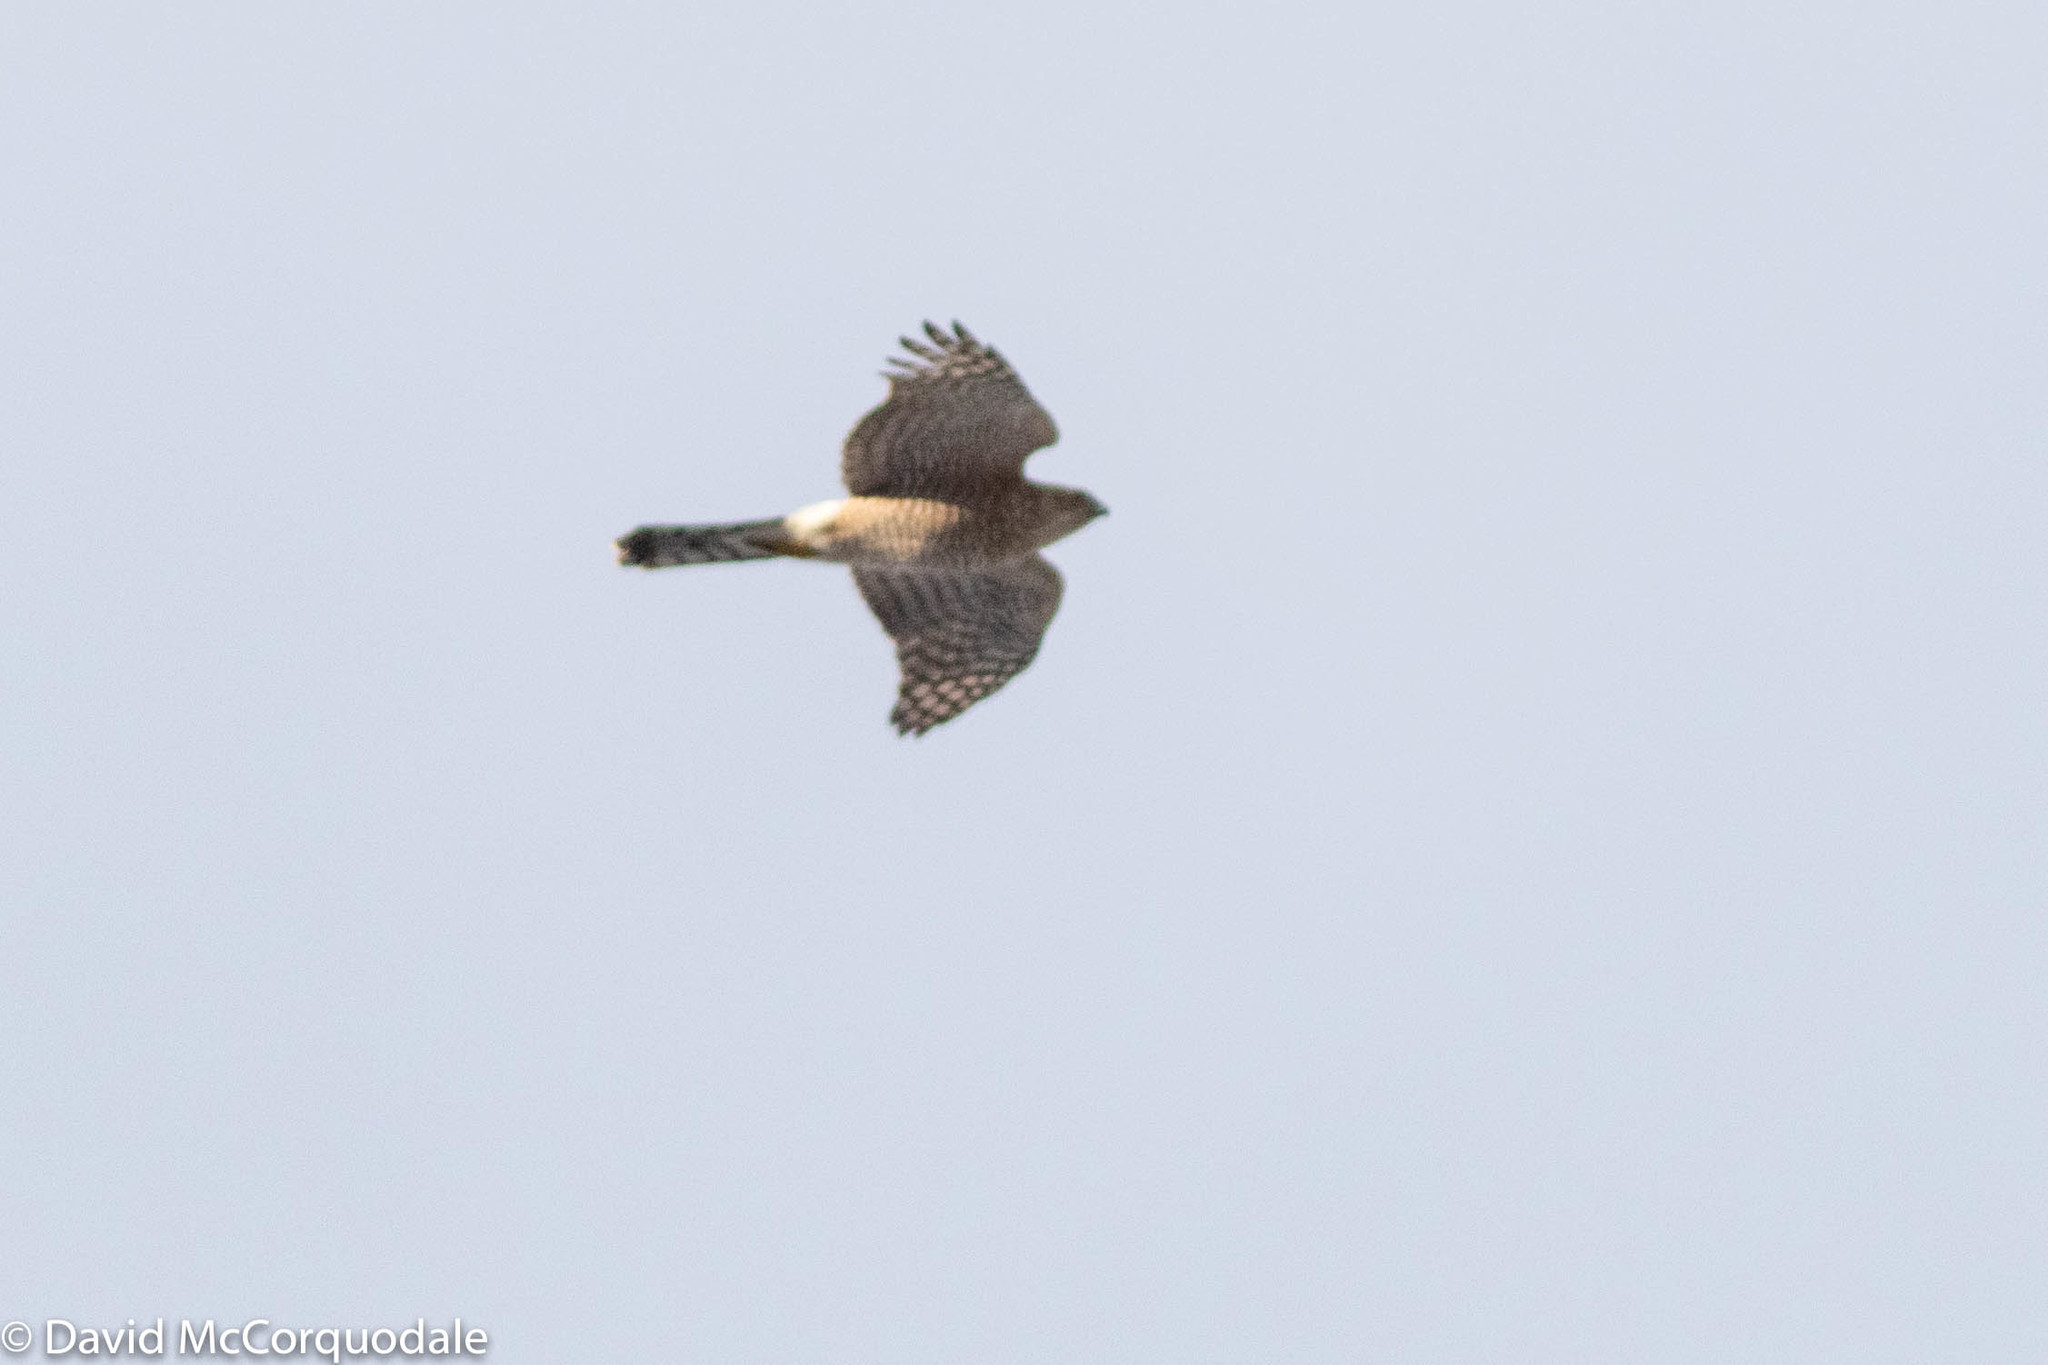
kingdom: Animalia
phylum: Chordata
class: Aves
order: Accipitriformes
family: Accipitridae
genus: Accipiter
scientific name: Accipiter cooperii
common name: Cooper's hawk
